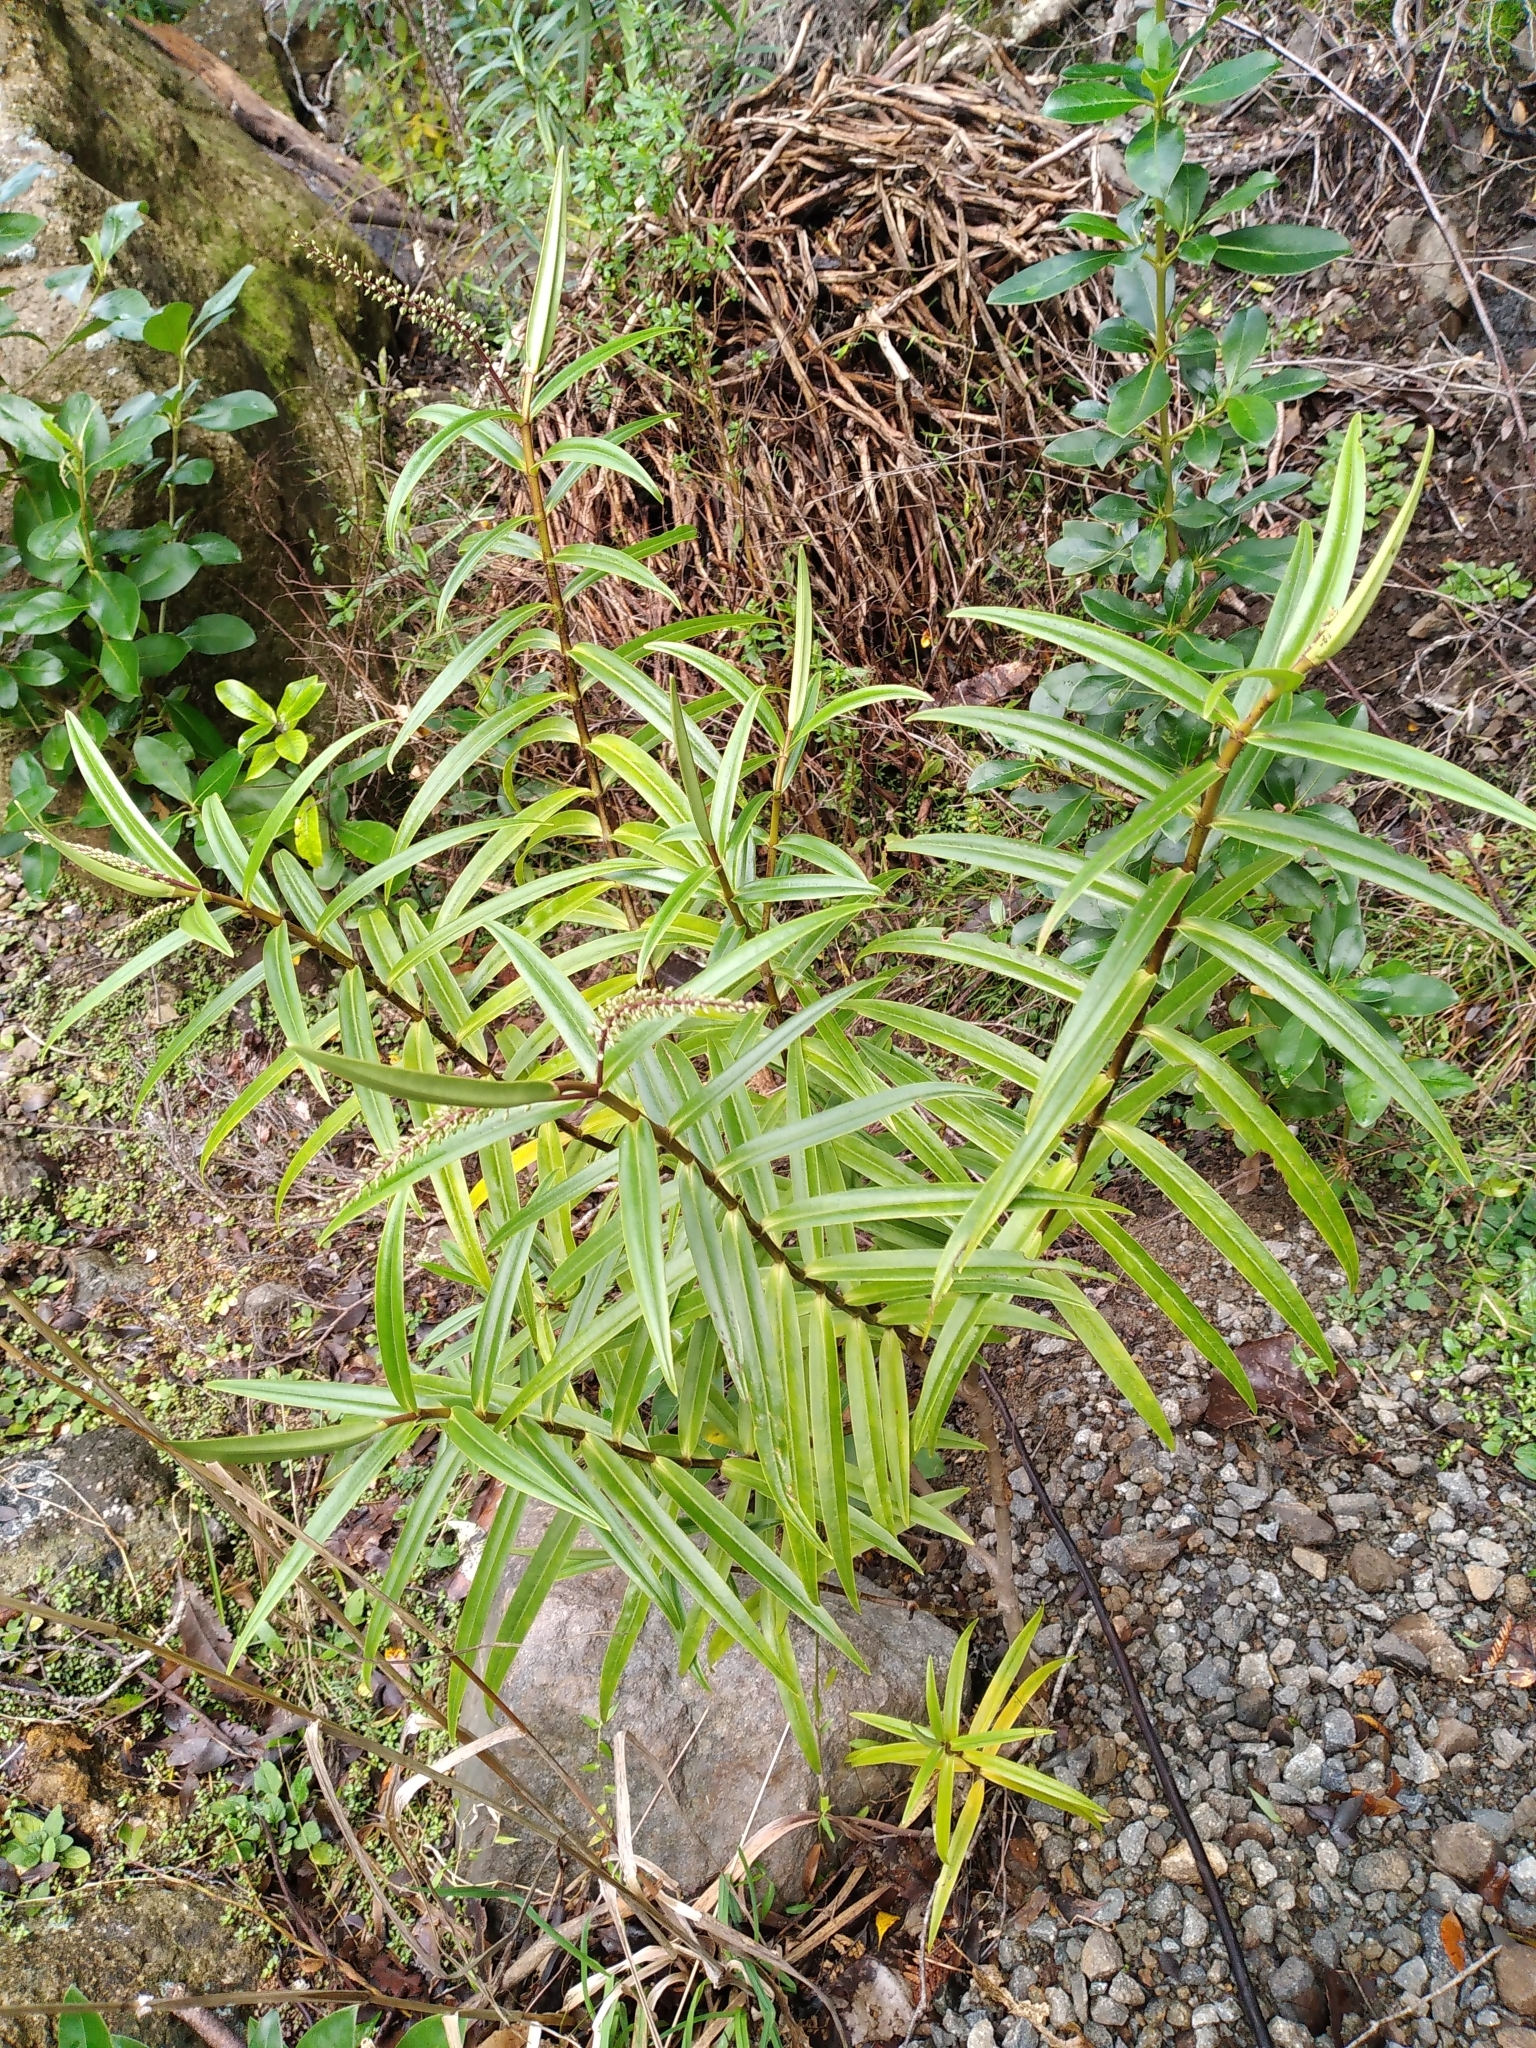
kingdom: Plantae
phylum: Tracheophyta
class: Magnoliopsida
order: Lamiales
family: Plantaginaceae
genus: Veronica
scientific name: Veronica macrocarpa
